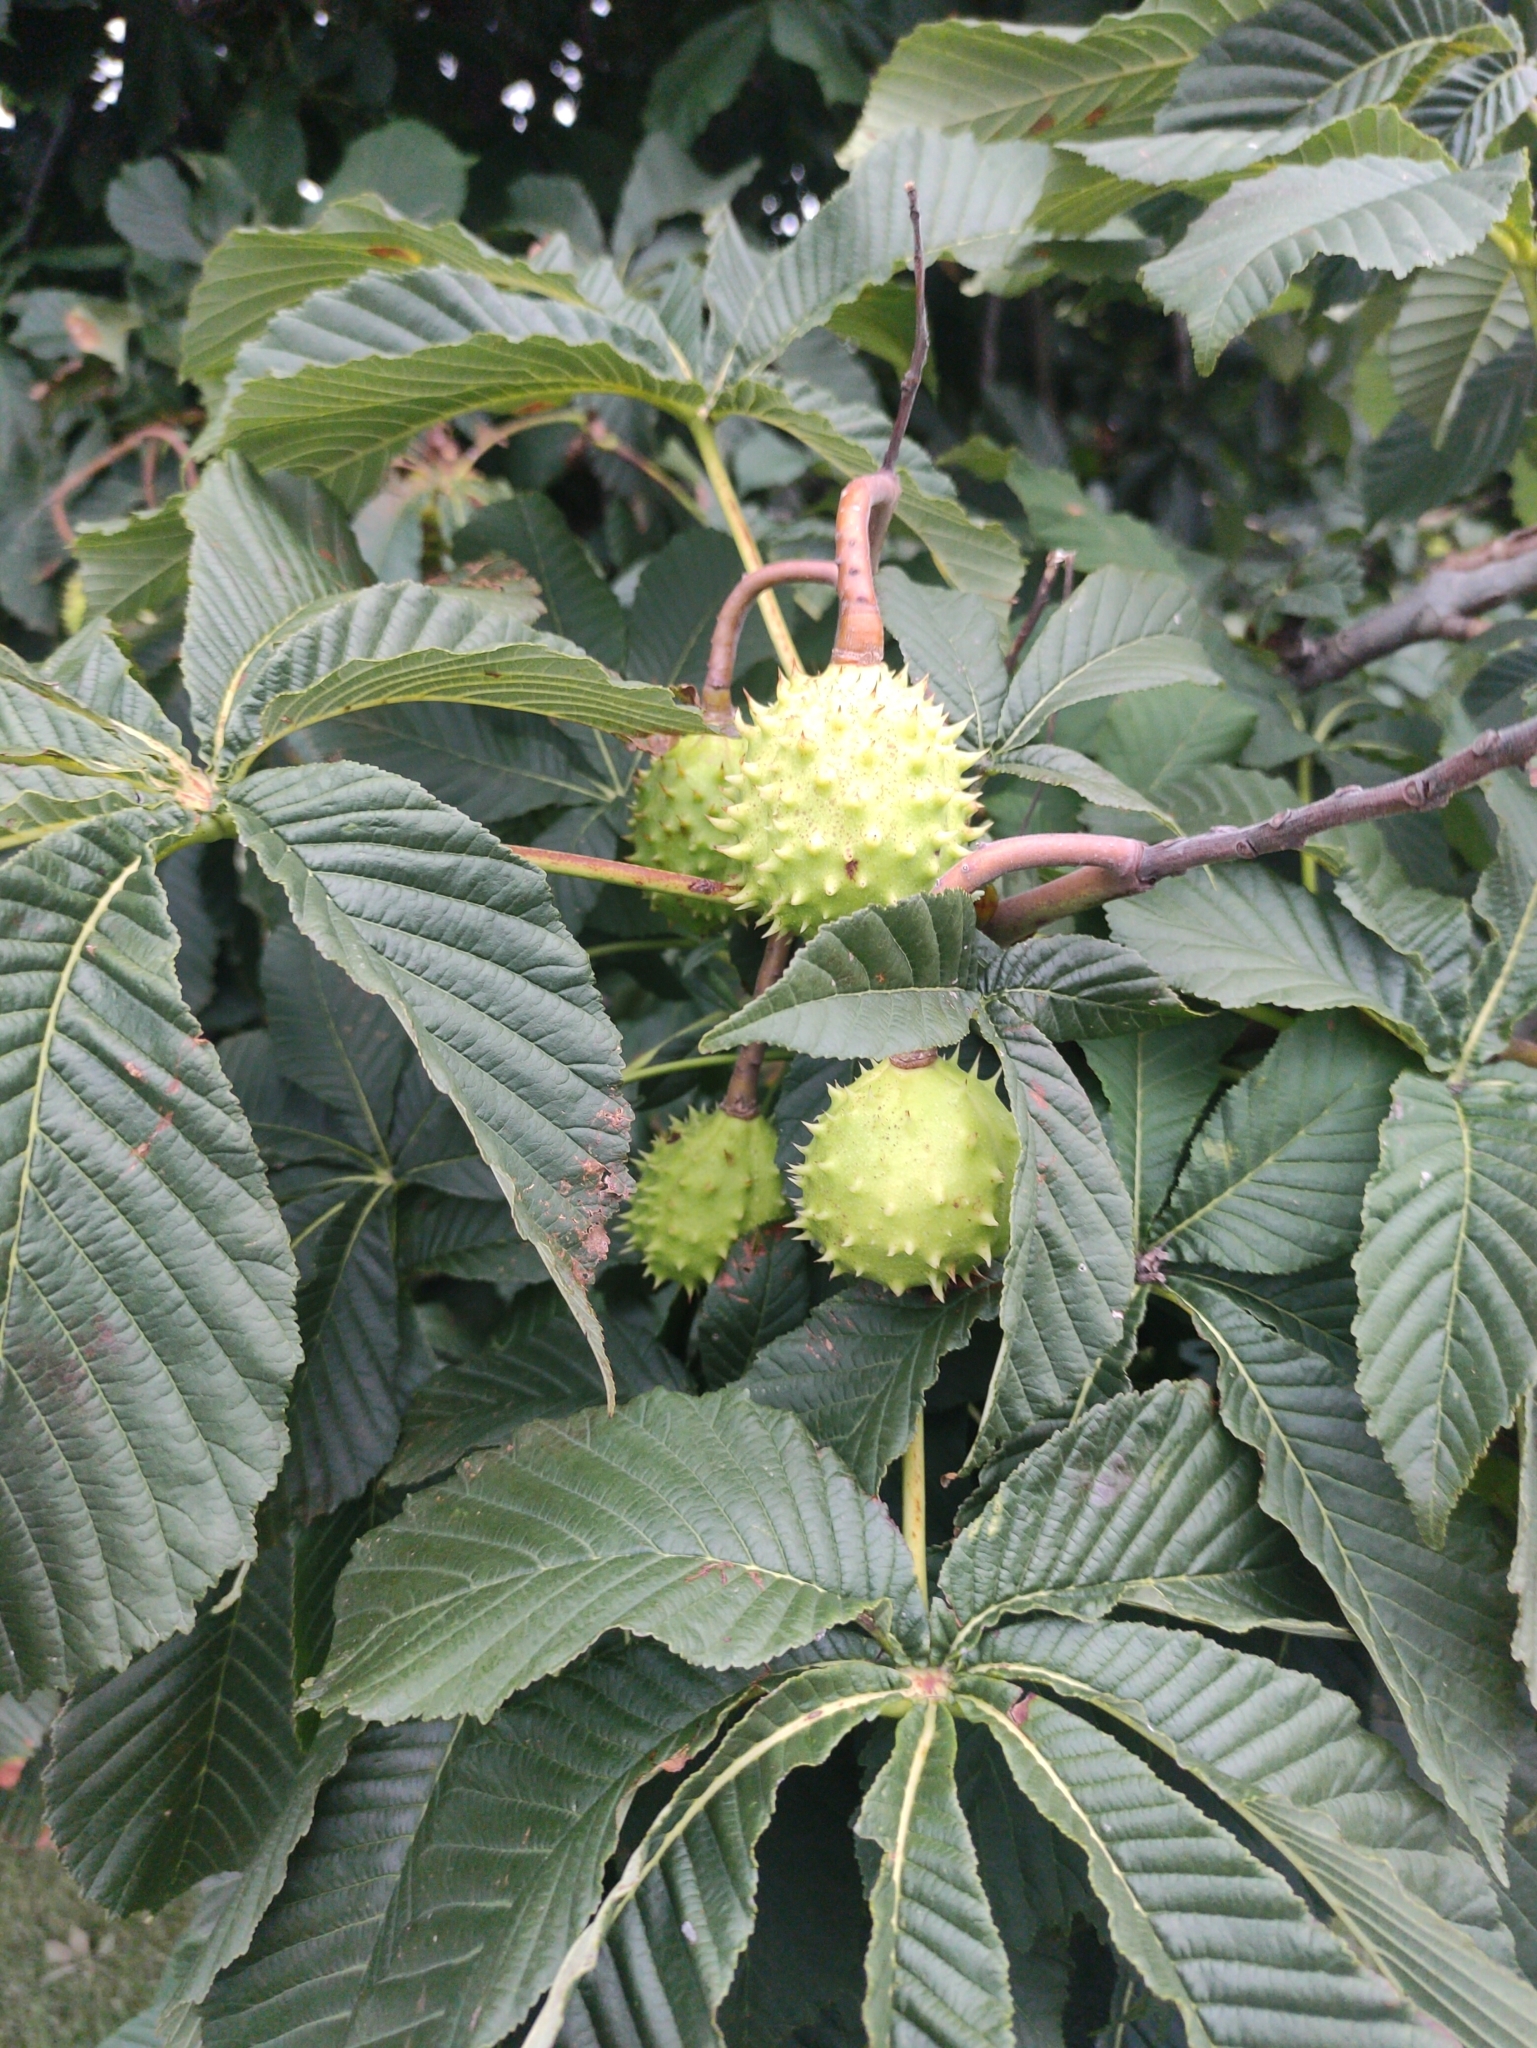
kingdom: Plantae
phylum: Tracheophyta
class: Magnoliopsida
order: Sapindales
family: Sapindaceae
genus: Aesculus
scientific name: Aesculus hippocastanum
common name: Horse-chestnut
